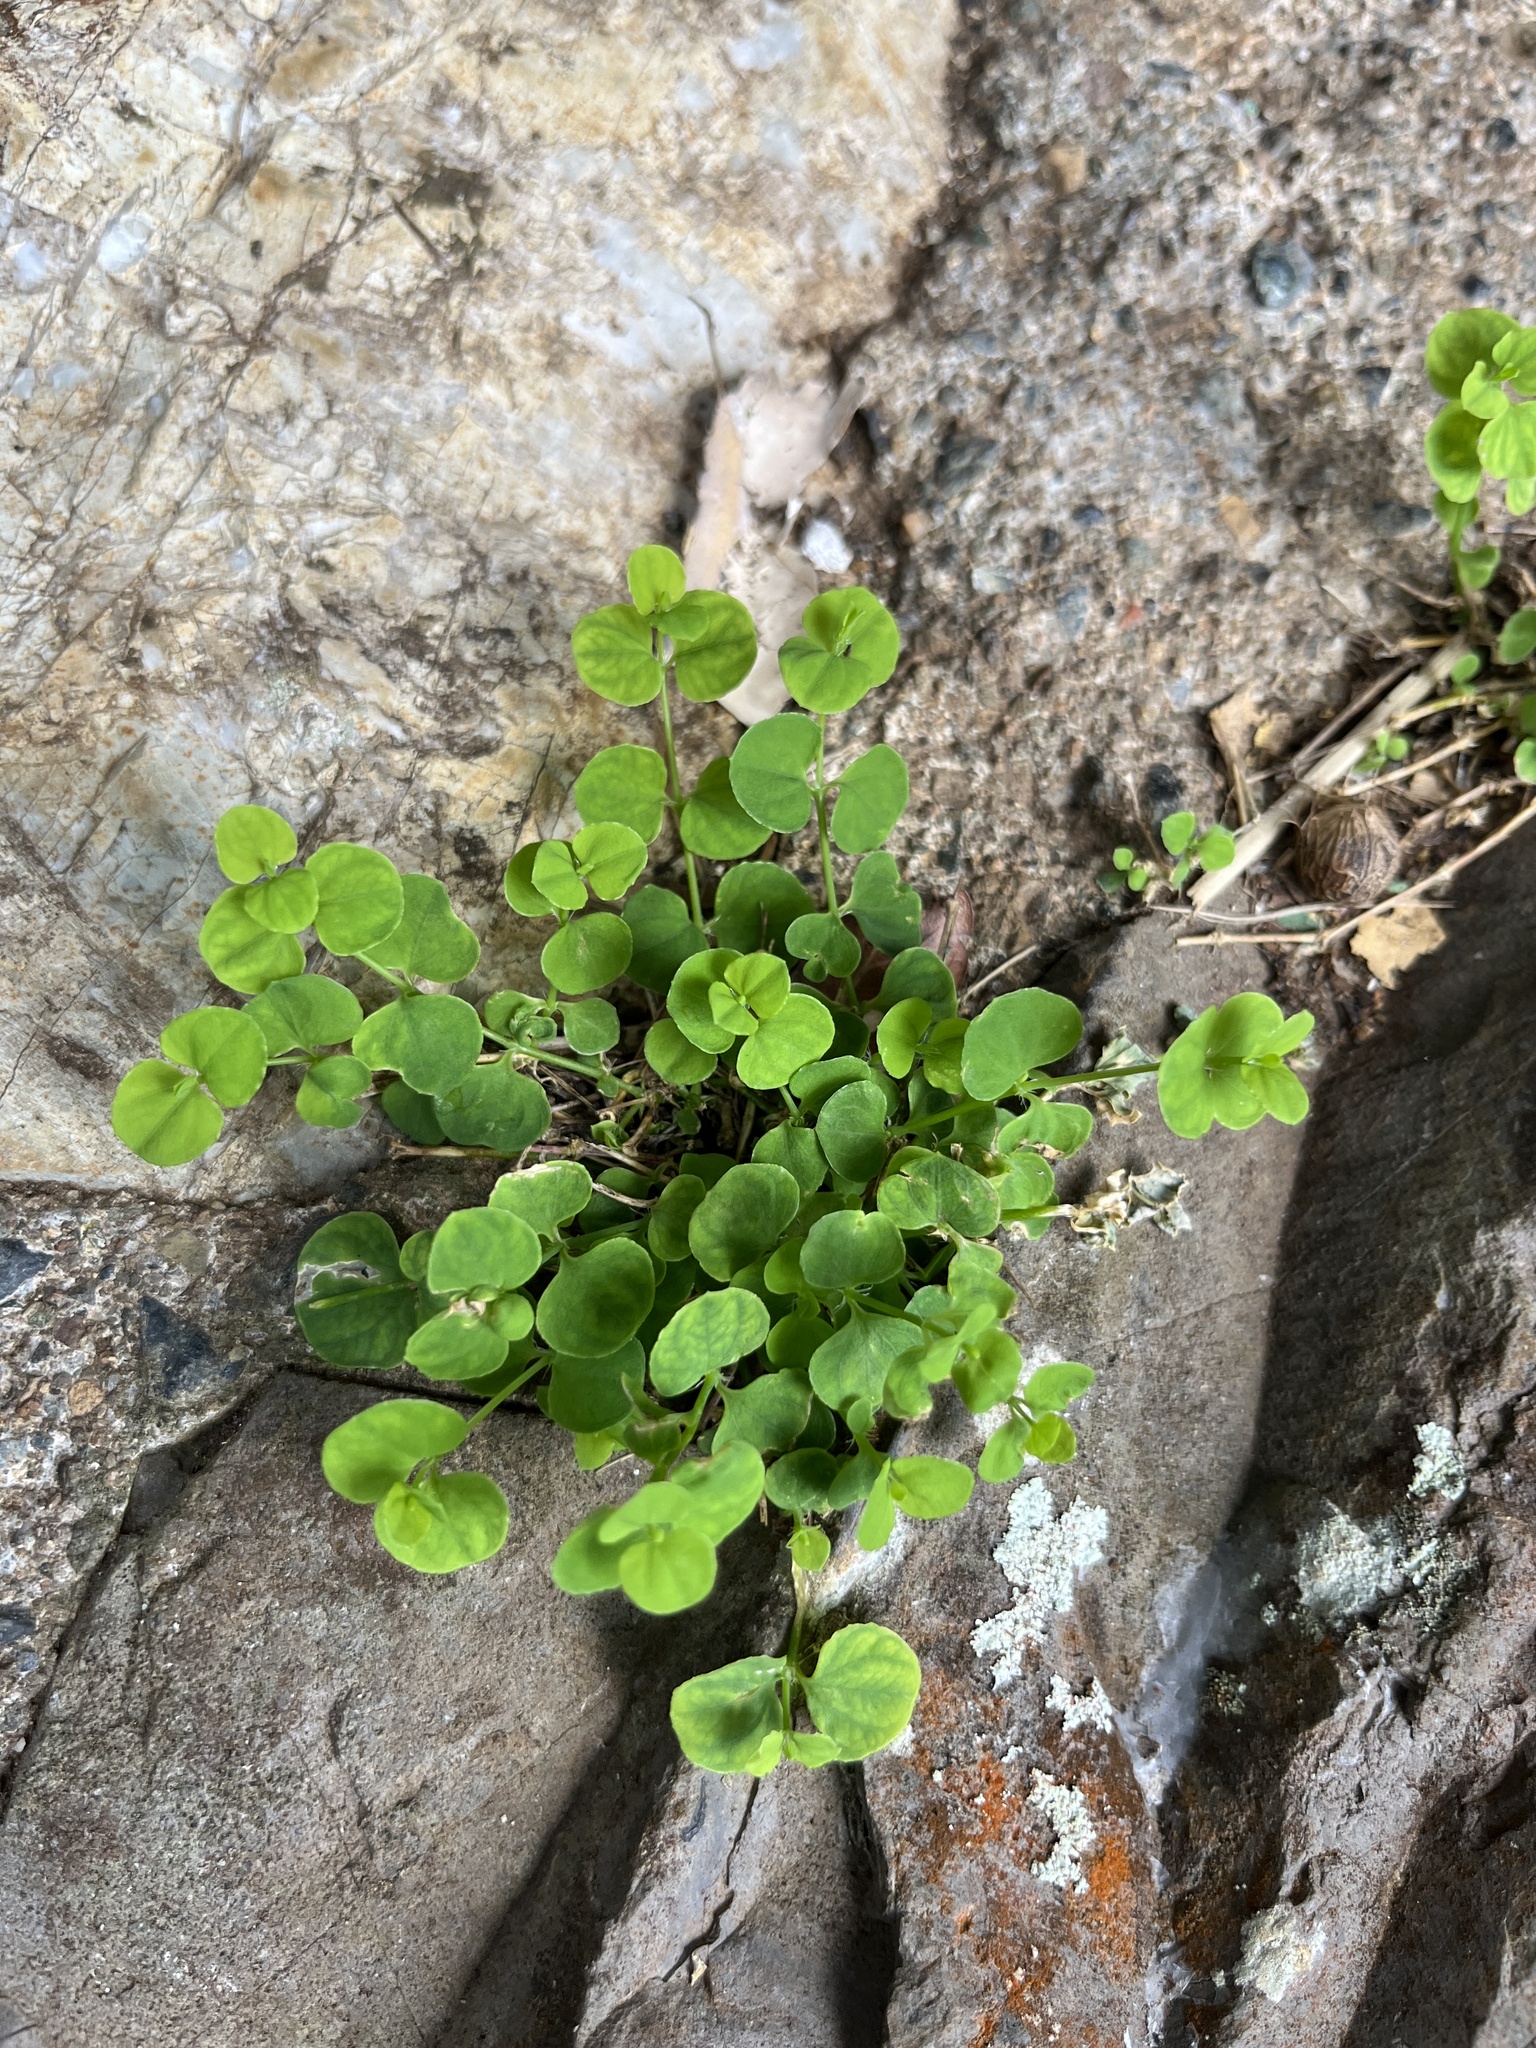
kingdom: Plantae
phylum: Tracheophyta
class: Magnoliopsida
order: Caryophyllales
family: Caryophyllaceae
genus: Drymaria
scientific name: Drymaria cordata
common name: Whitesnow
